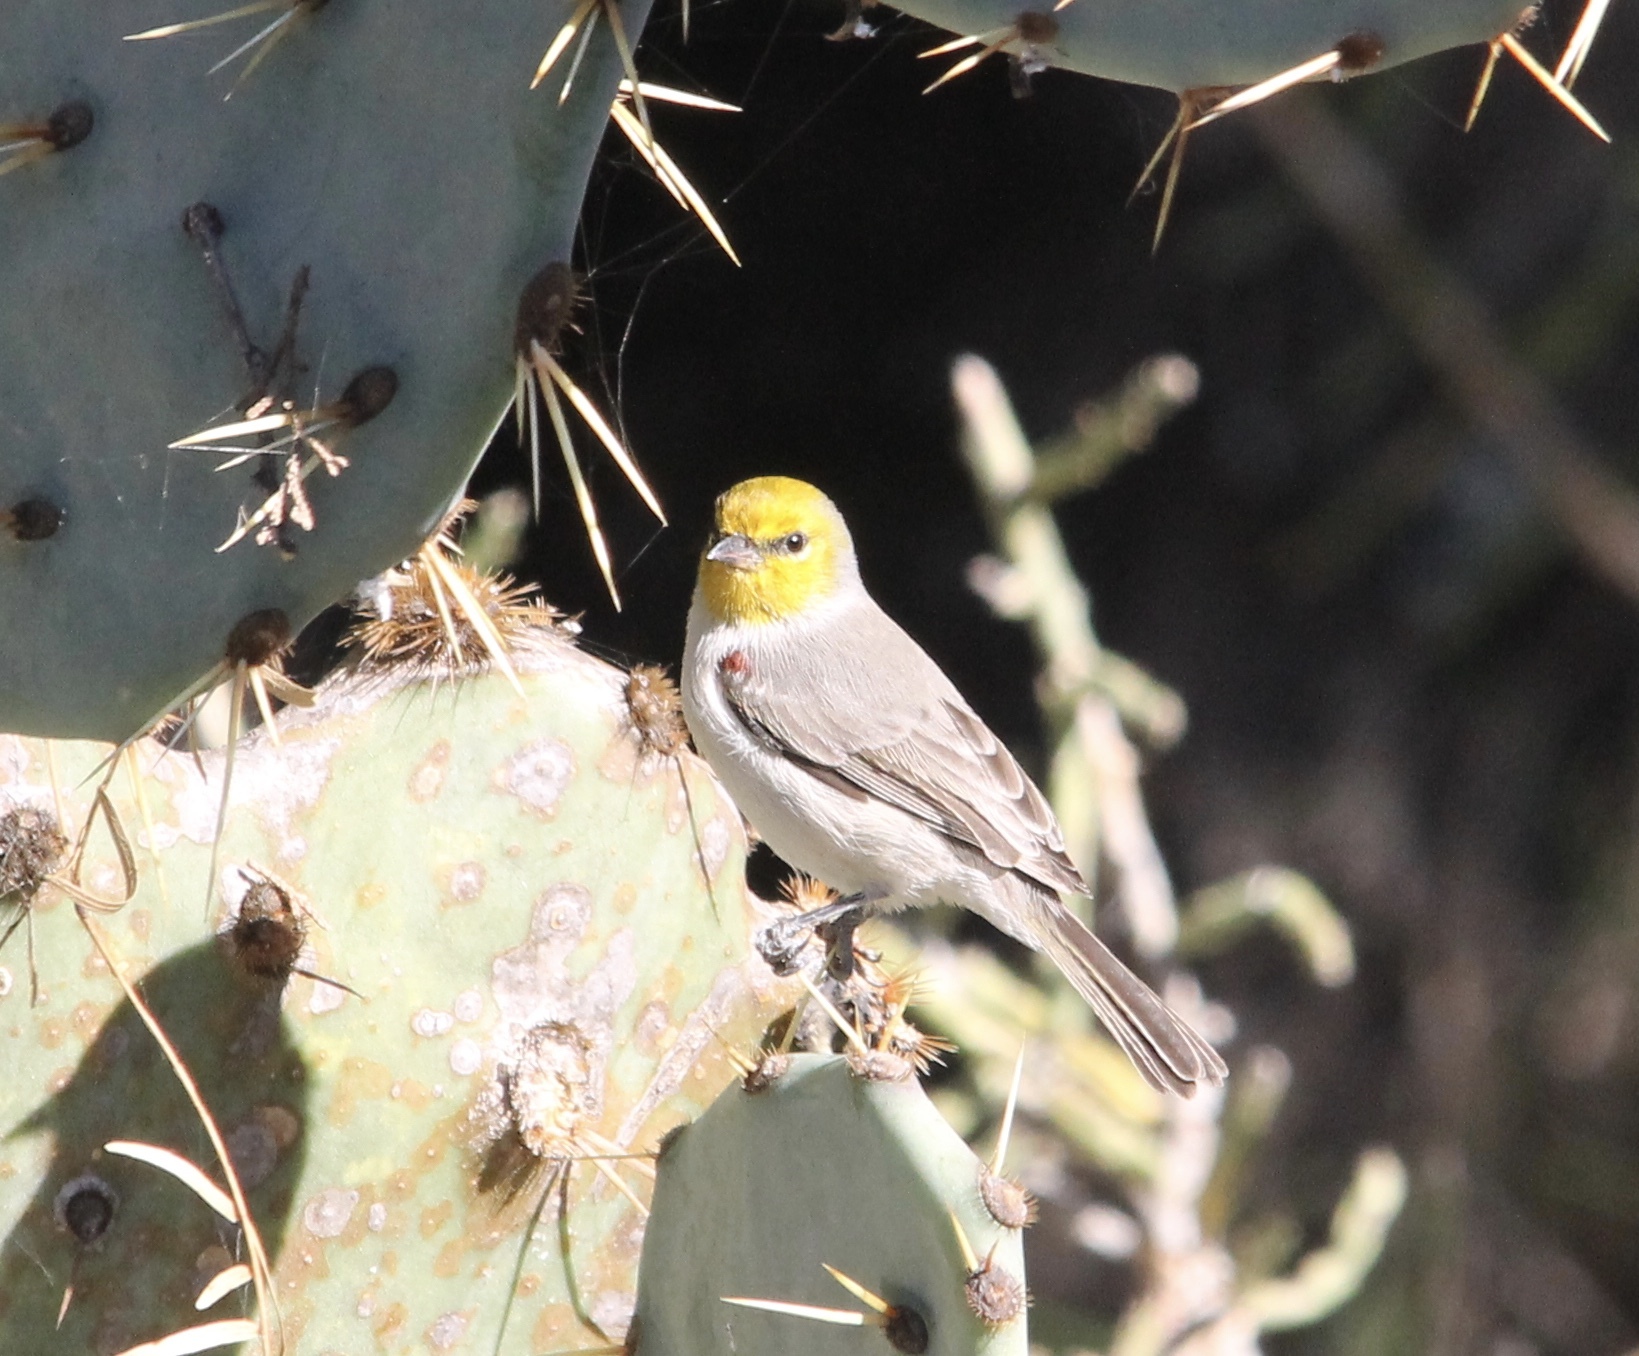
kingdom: Animalia
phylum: Chordata
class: Aves
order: Passeriformes
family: Remizidae
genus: Auriparus
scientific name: Auriparus flaviceps
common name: Verdin
